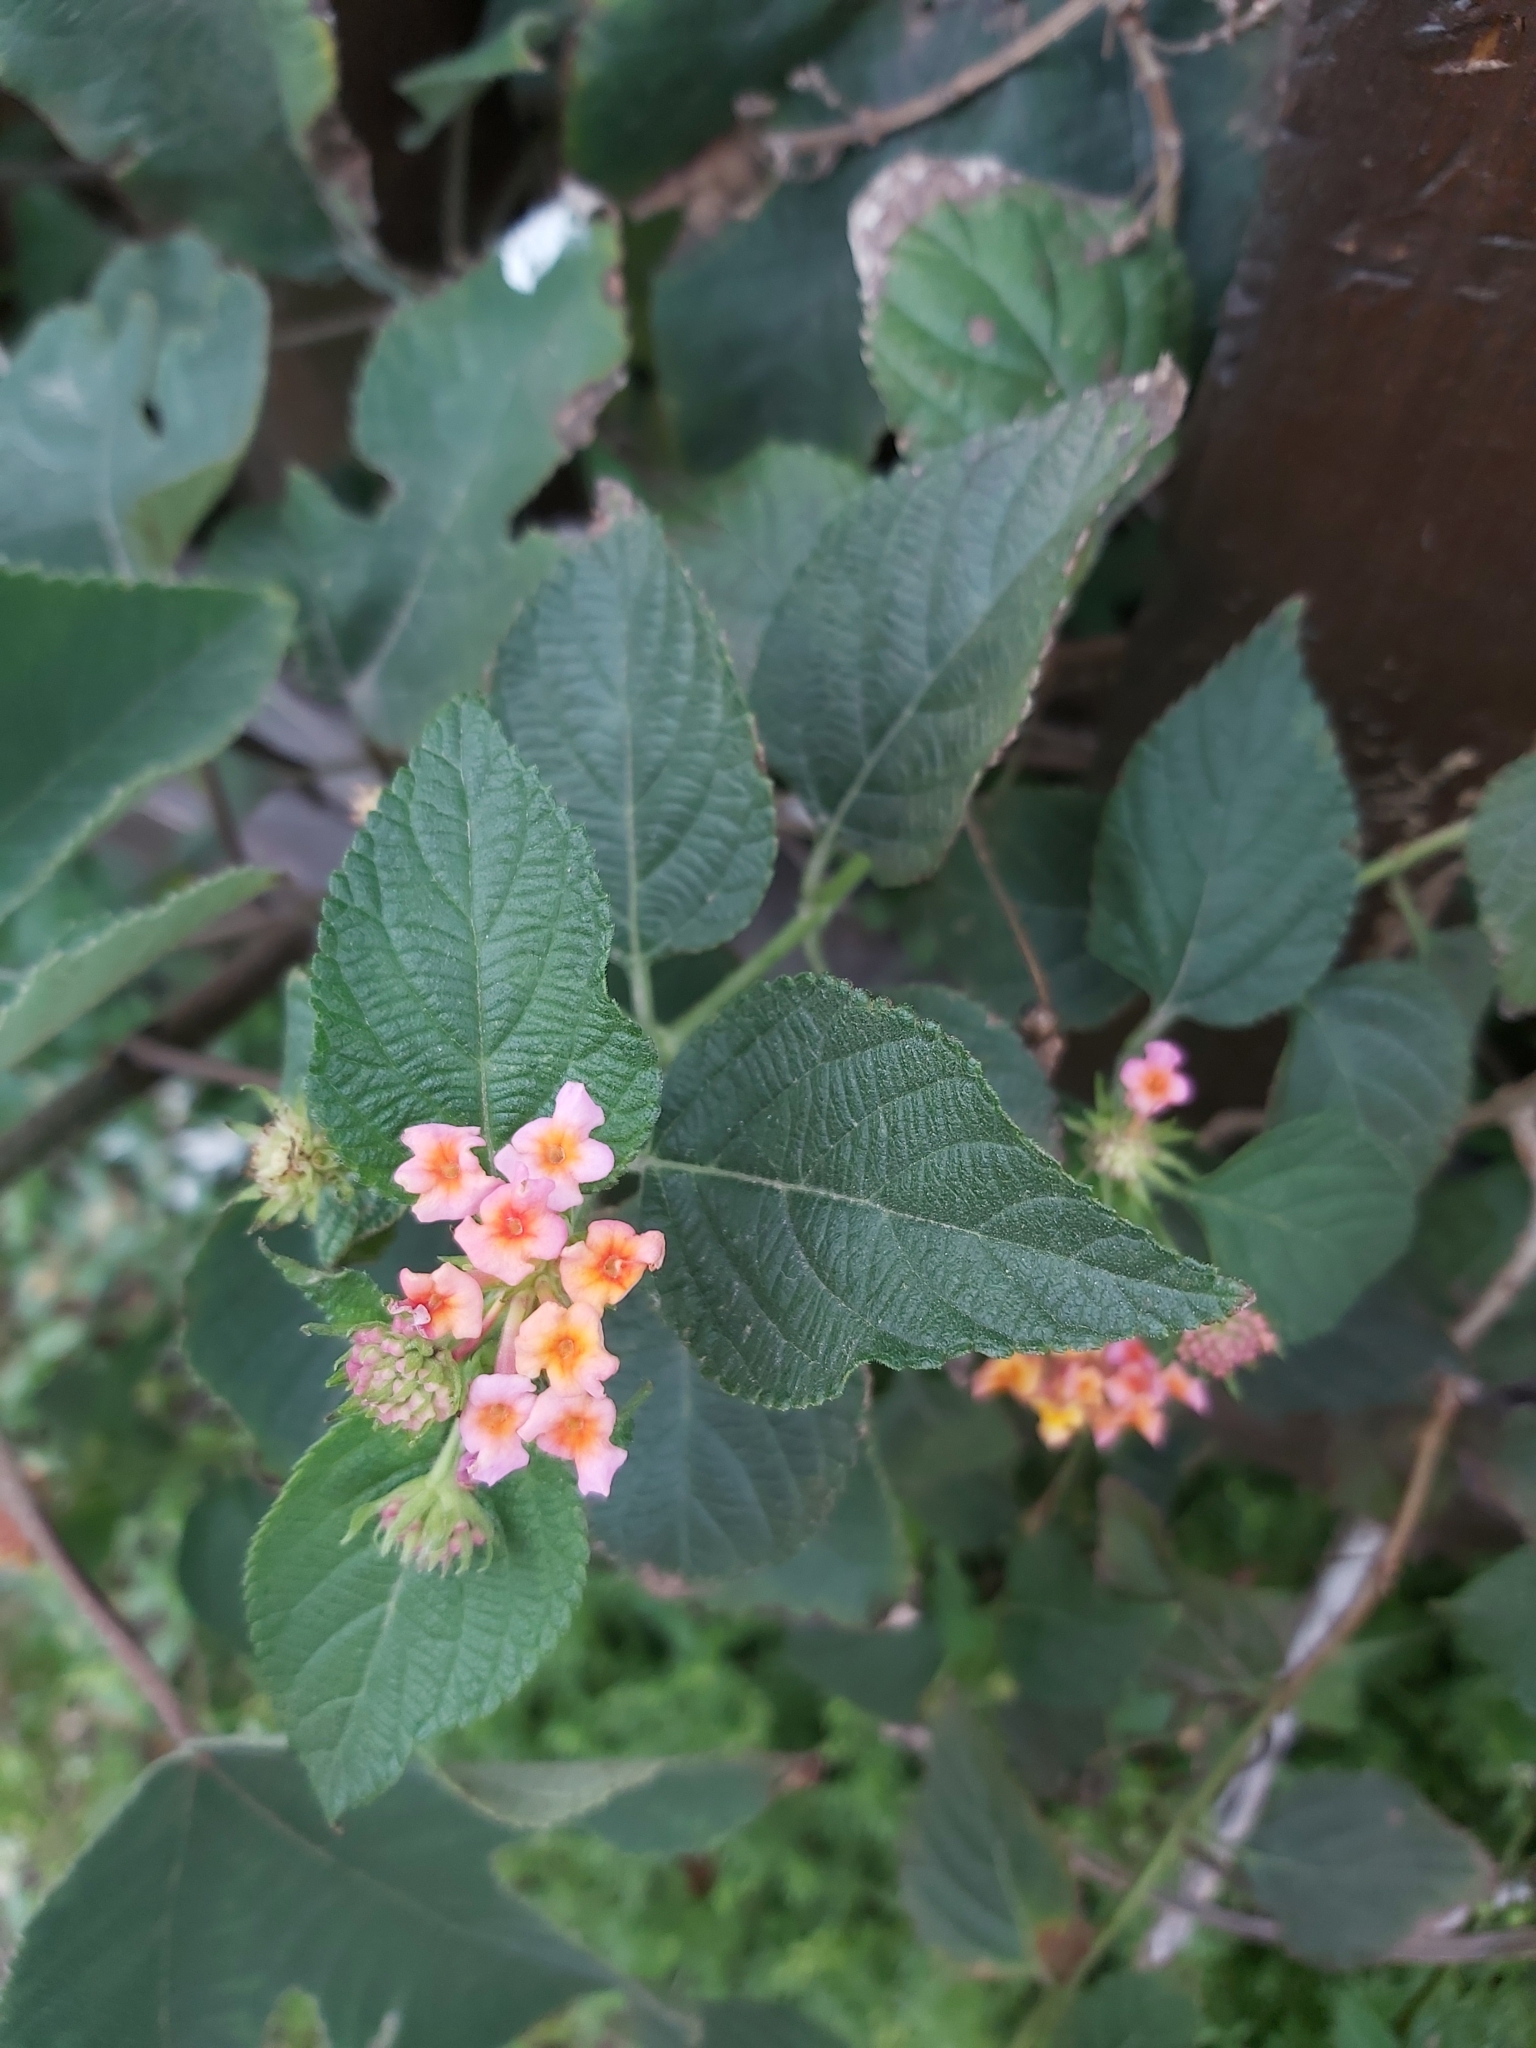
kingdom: Plantae
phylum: Tracheophyta
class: Magnoliopsida
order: Lamiales
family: Verbenaceae
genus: Lantana
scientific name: Lantana camara
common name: Lantana
